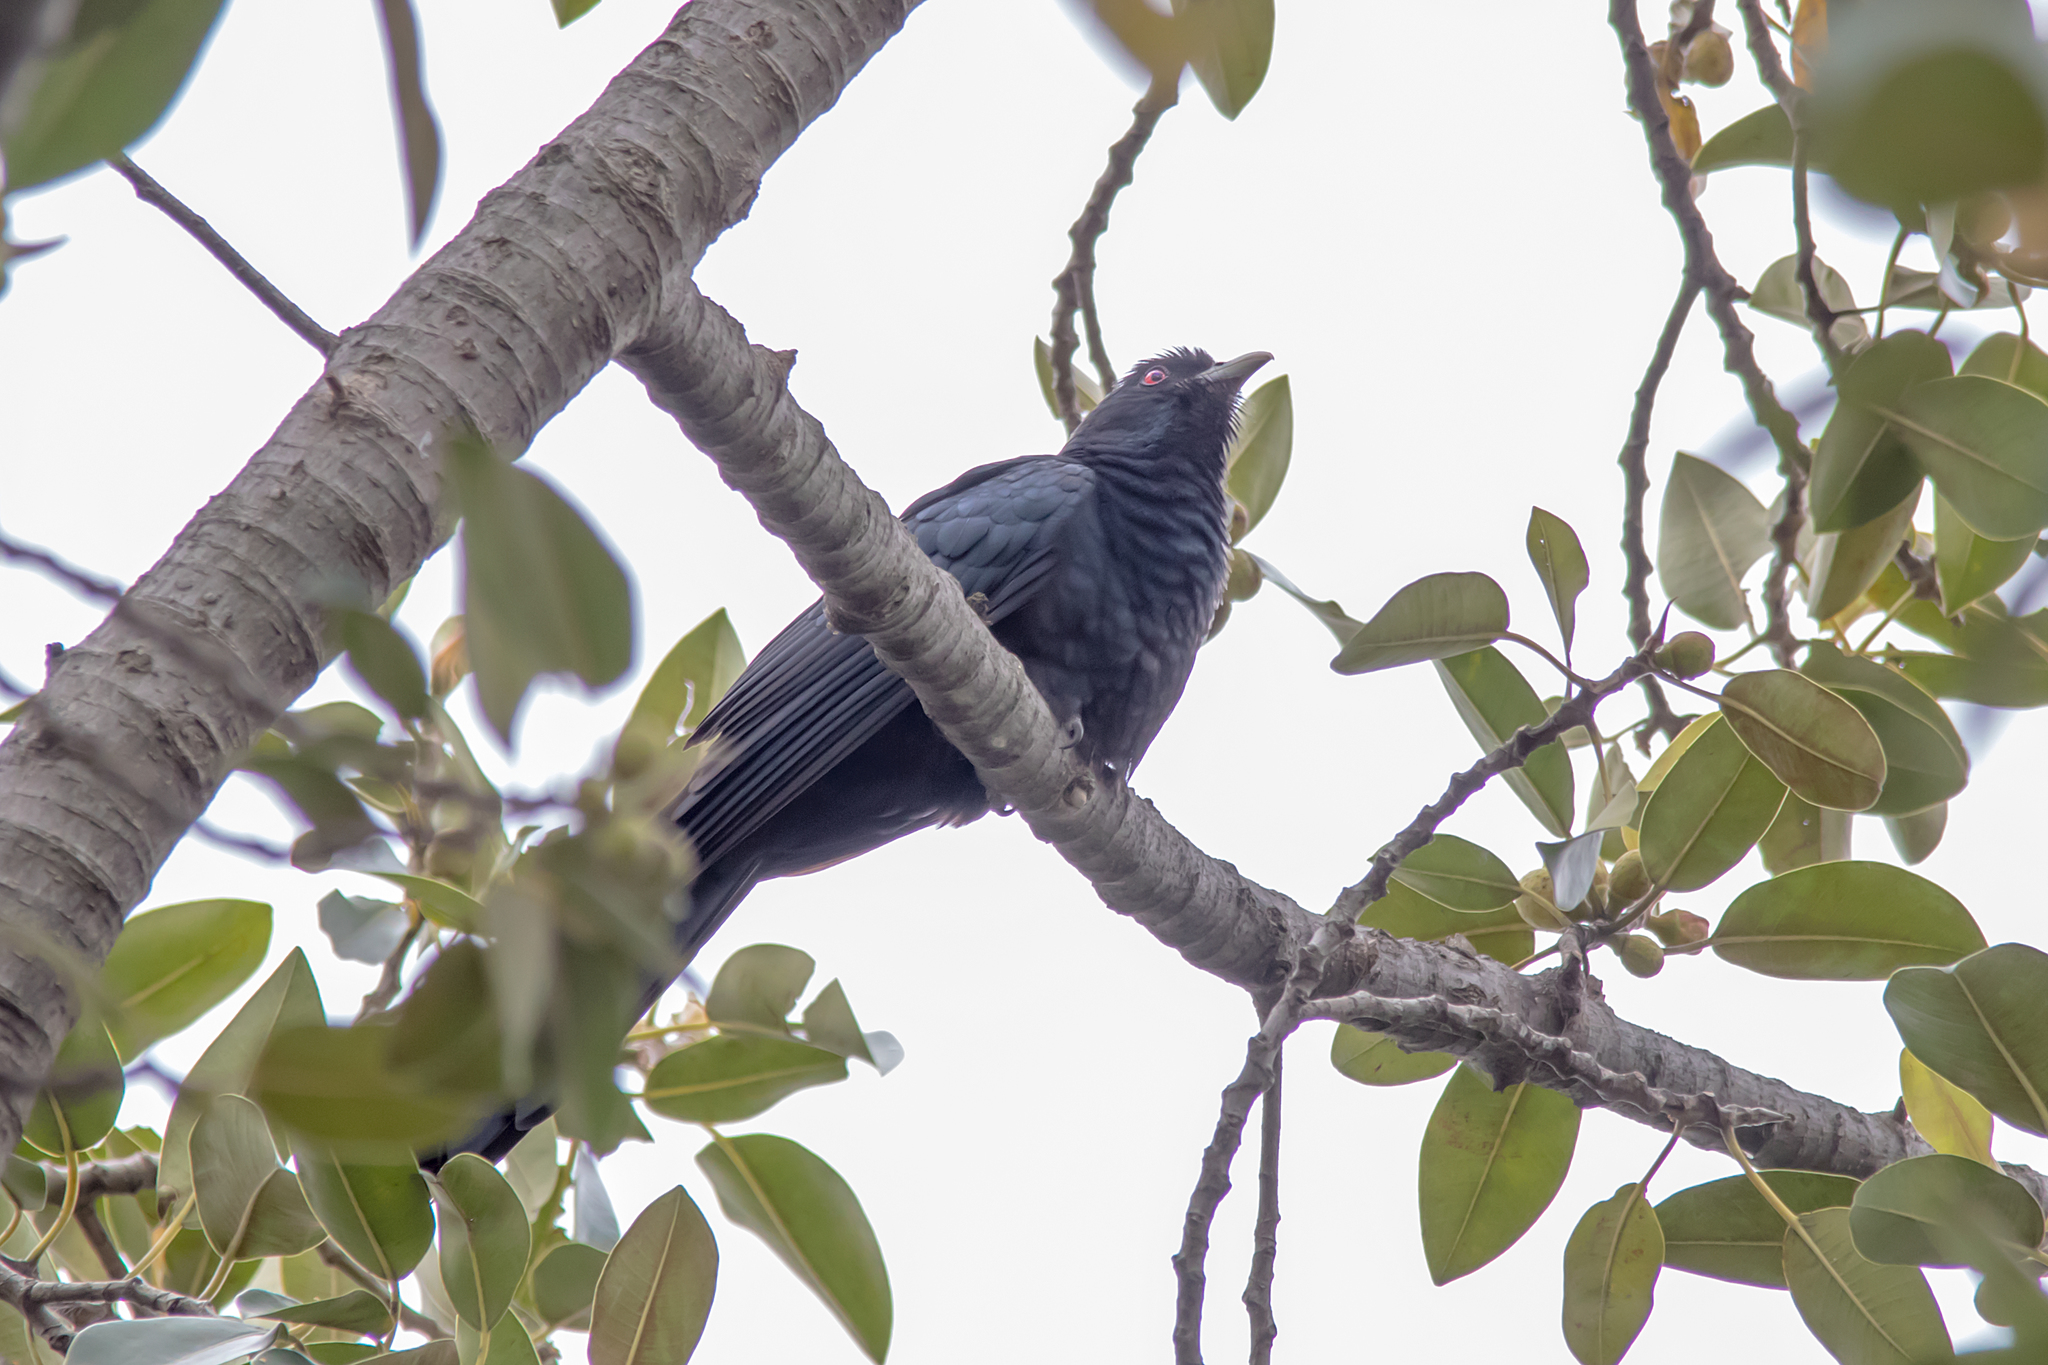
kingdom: Animalia
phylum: Chordata
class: Aves
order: Cuculiformes
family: Cuculidae
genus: Eudynamys
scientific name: Eudynamys orientalis
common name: Pacific koel
